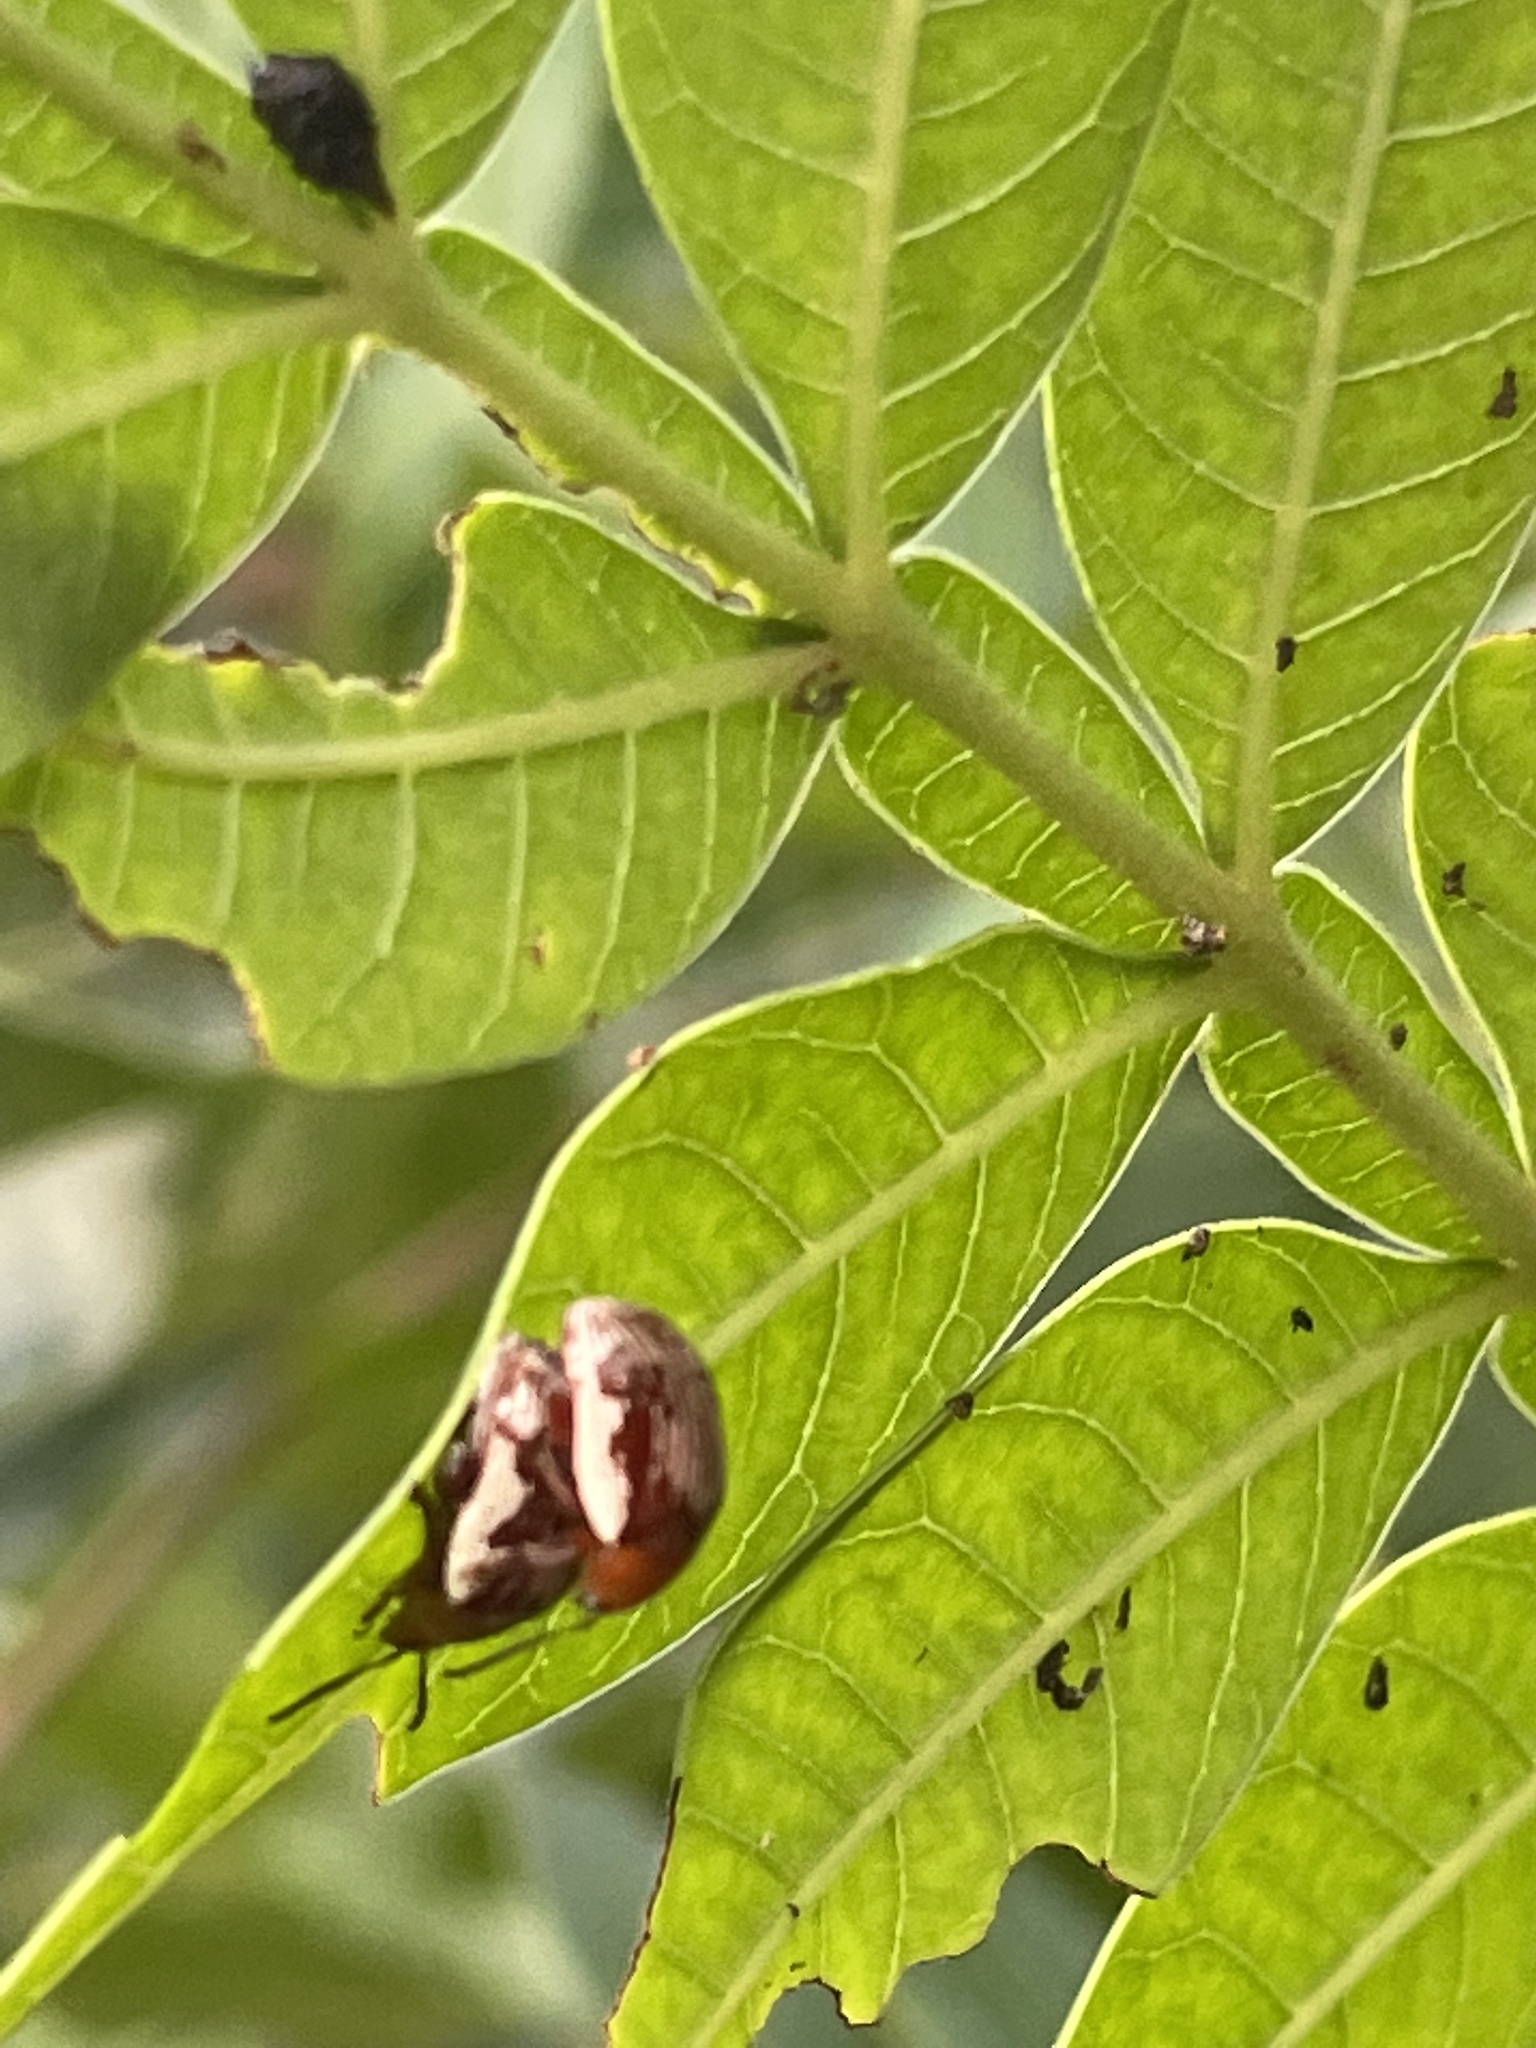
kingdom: Animalia
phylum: Arthropoda
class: Insecta
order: Coleoptera
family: Chrysomelidae
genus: Blepharida
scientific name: Blepharida rhois
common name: Sumac flea beetle
